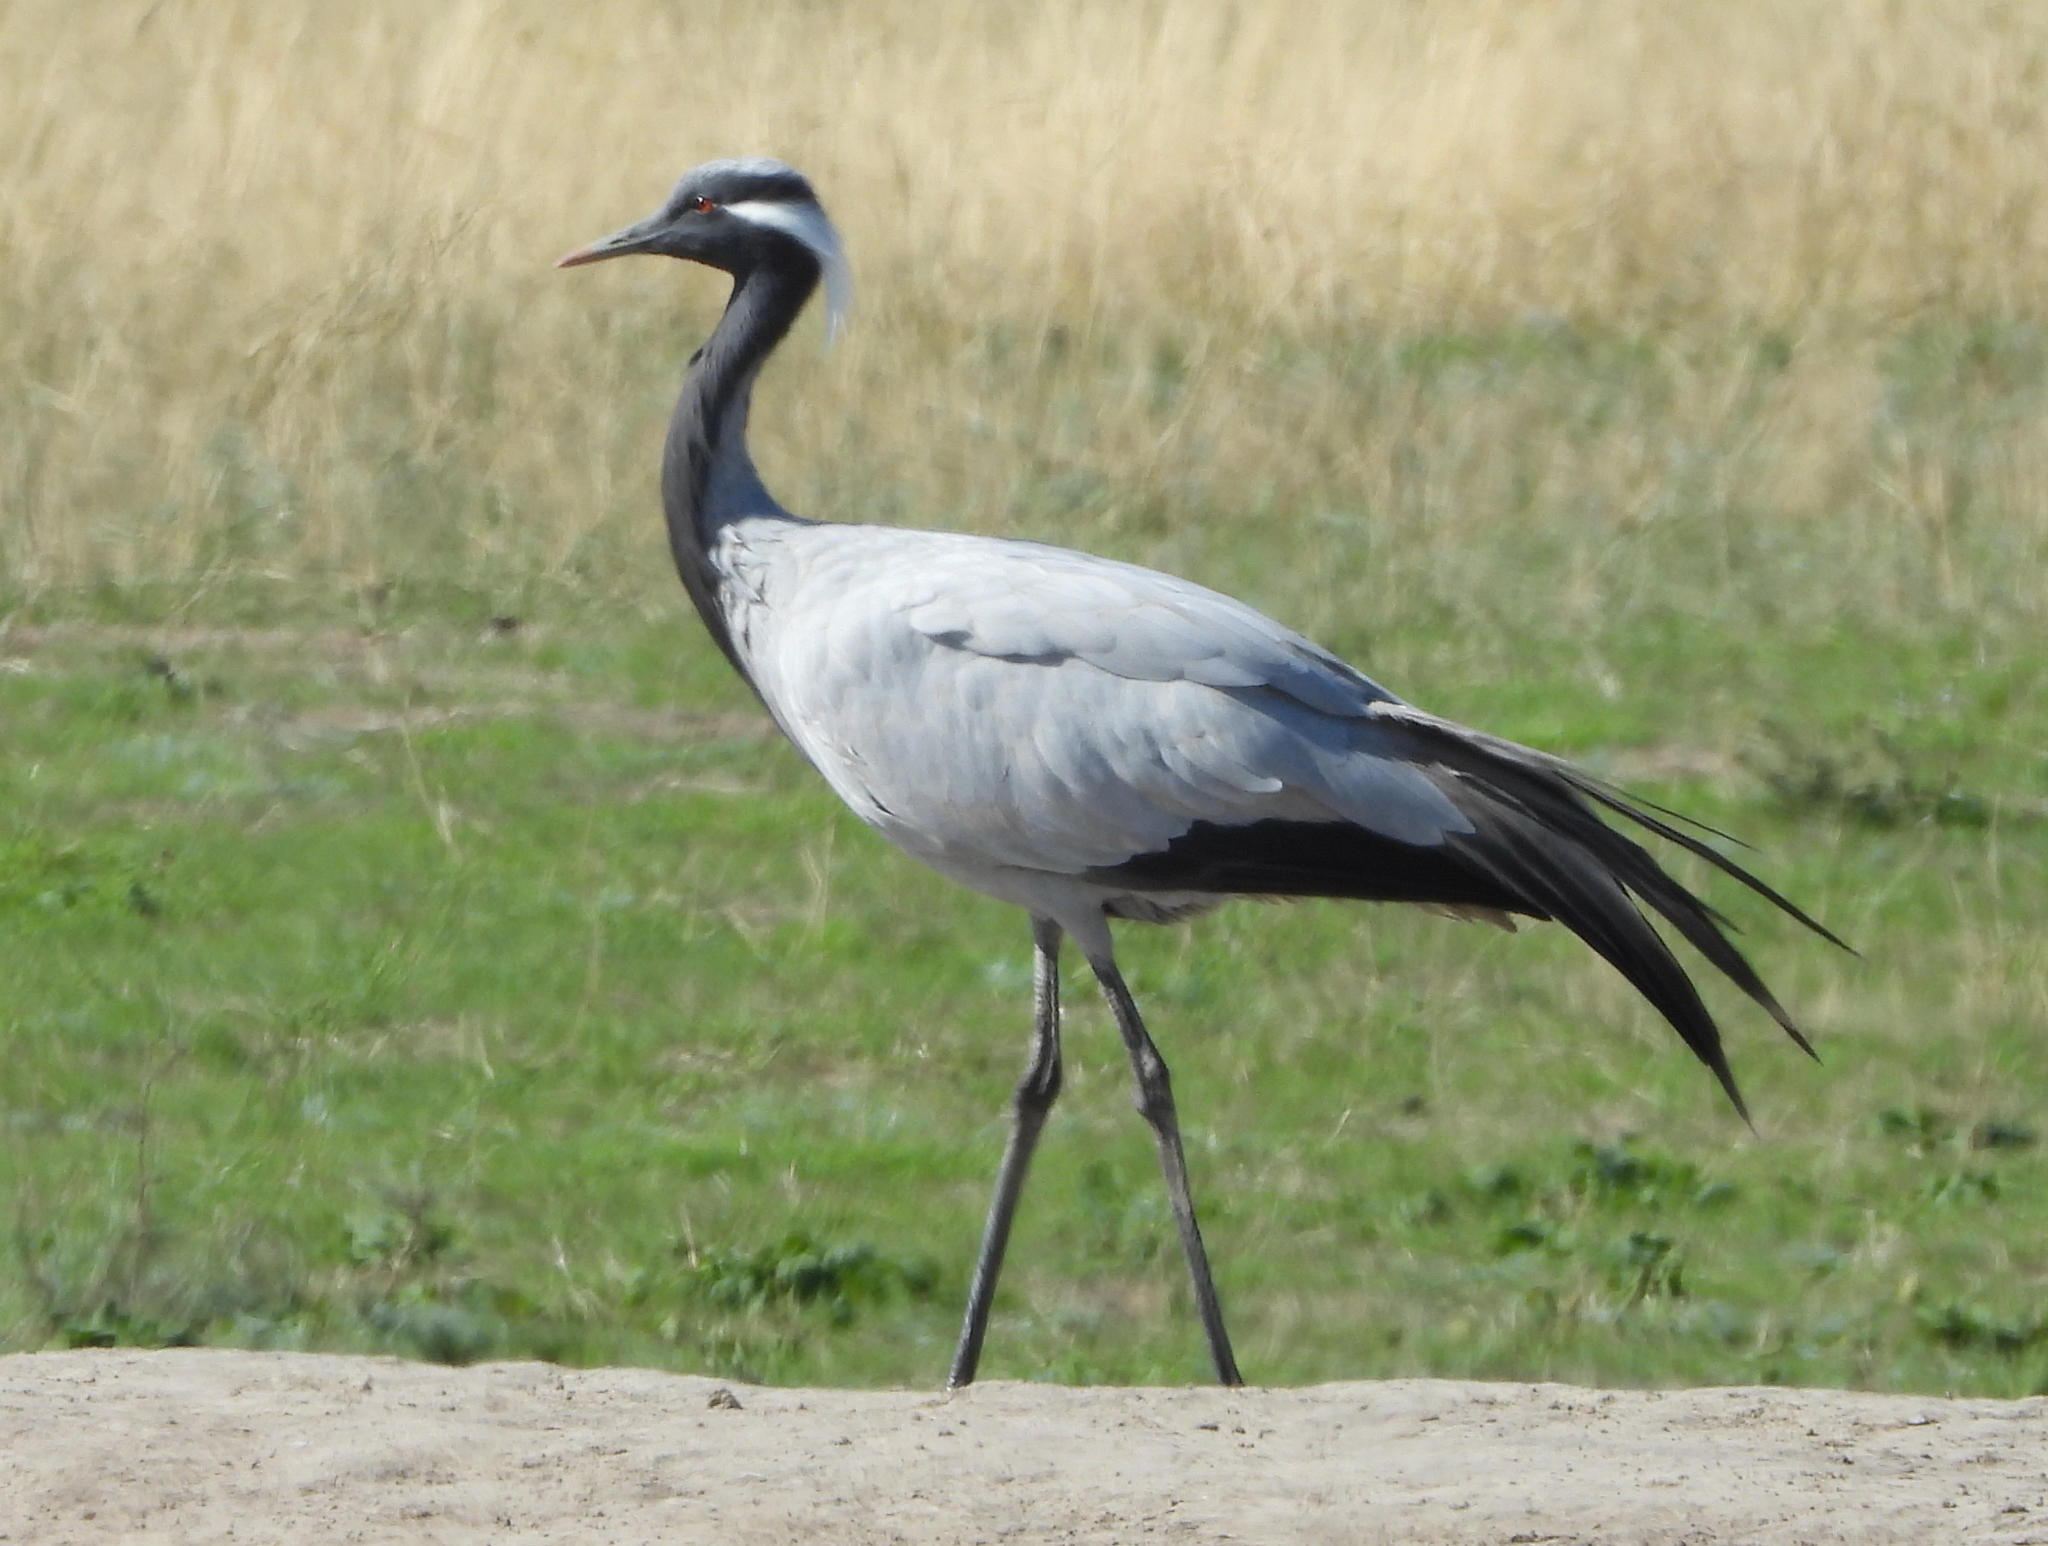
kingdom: Animalia
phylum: Chordata
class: Aves
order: Gruiformes
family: Gruidae
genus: Anthropoides
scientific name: Anthropoides virgo
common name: Demoiselle crane
